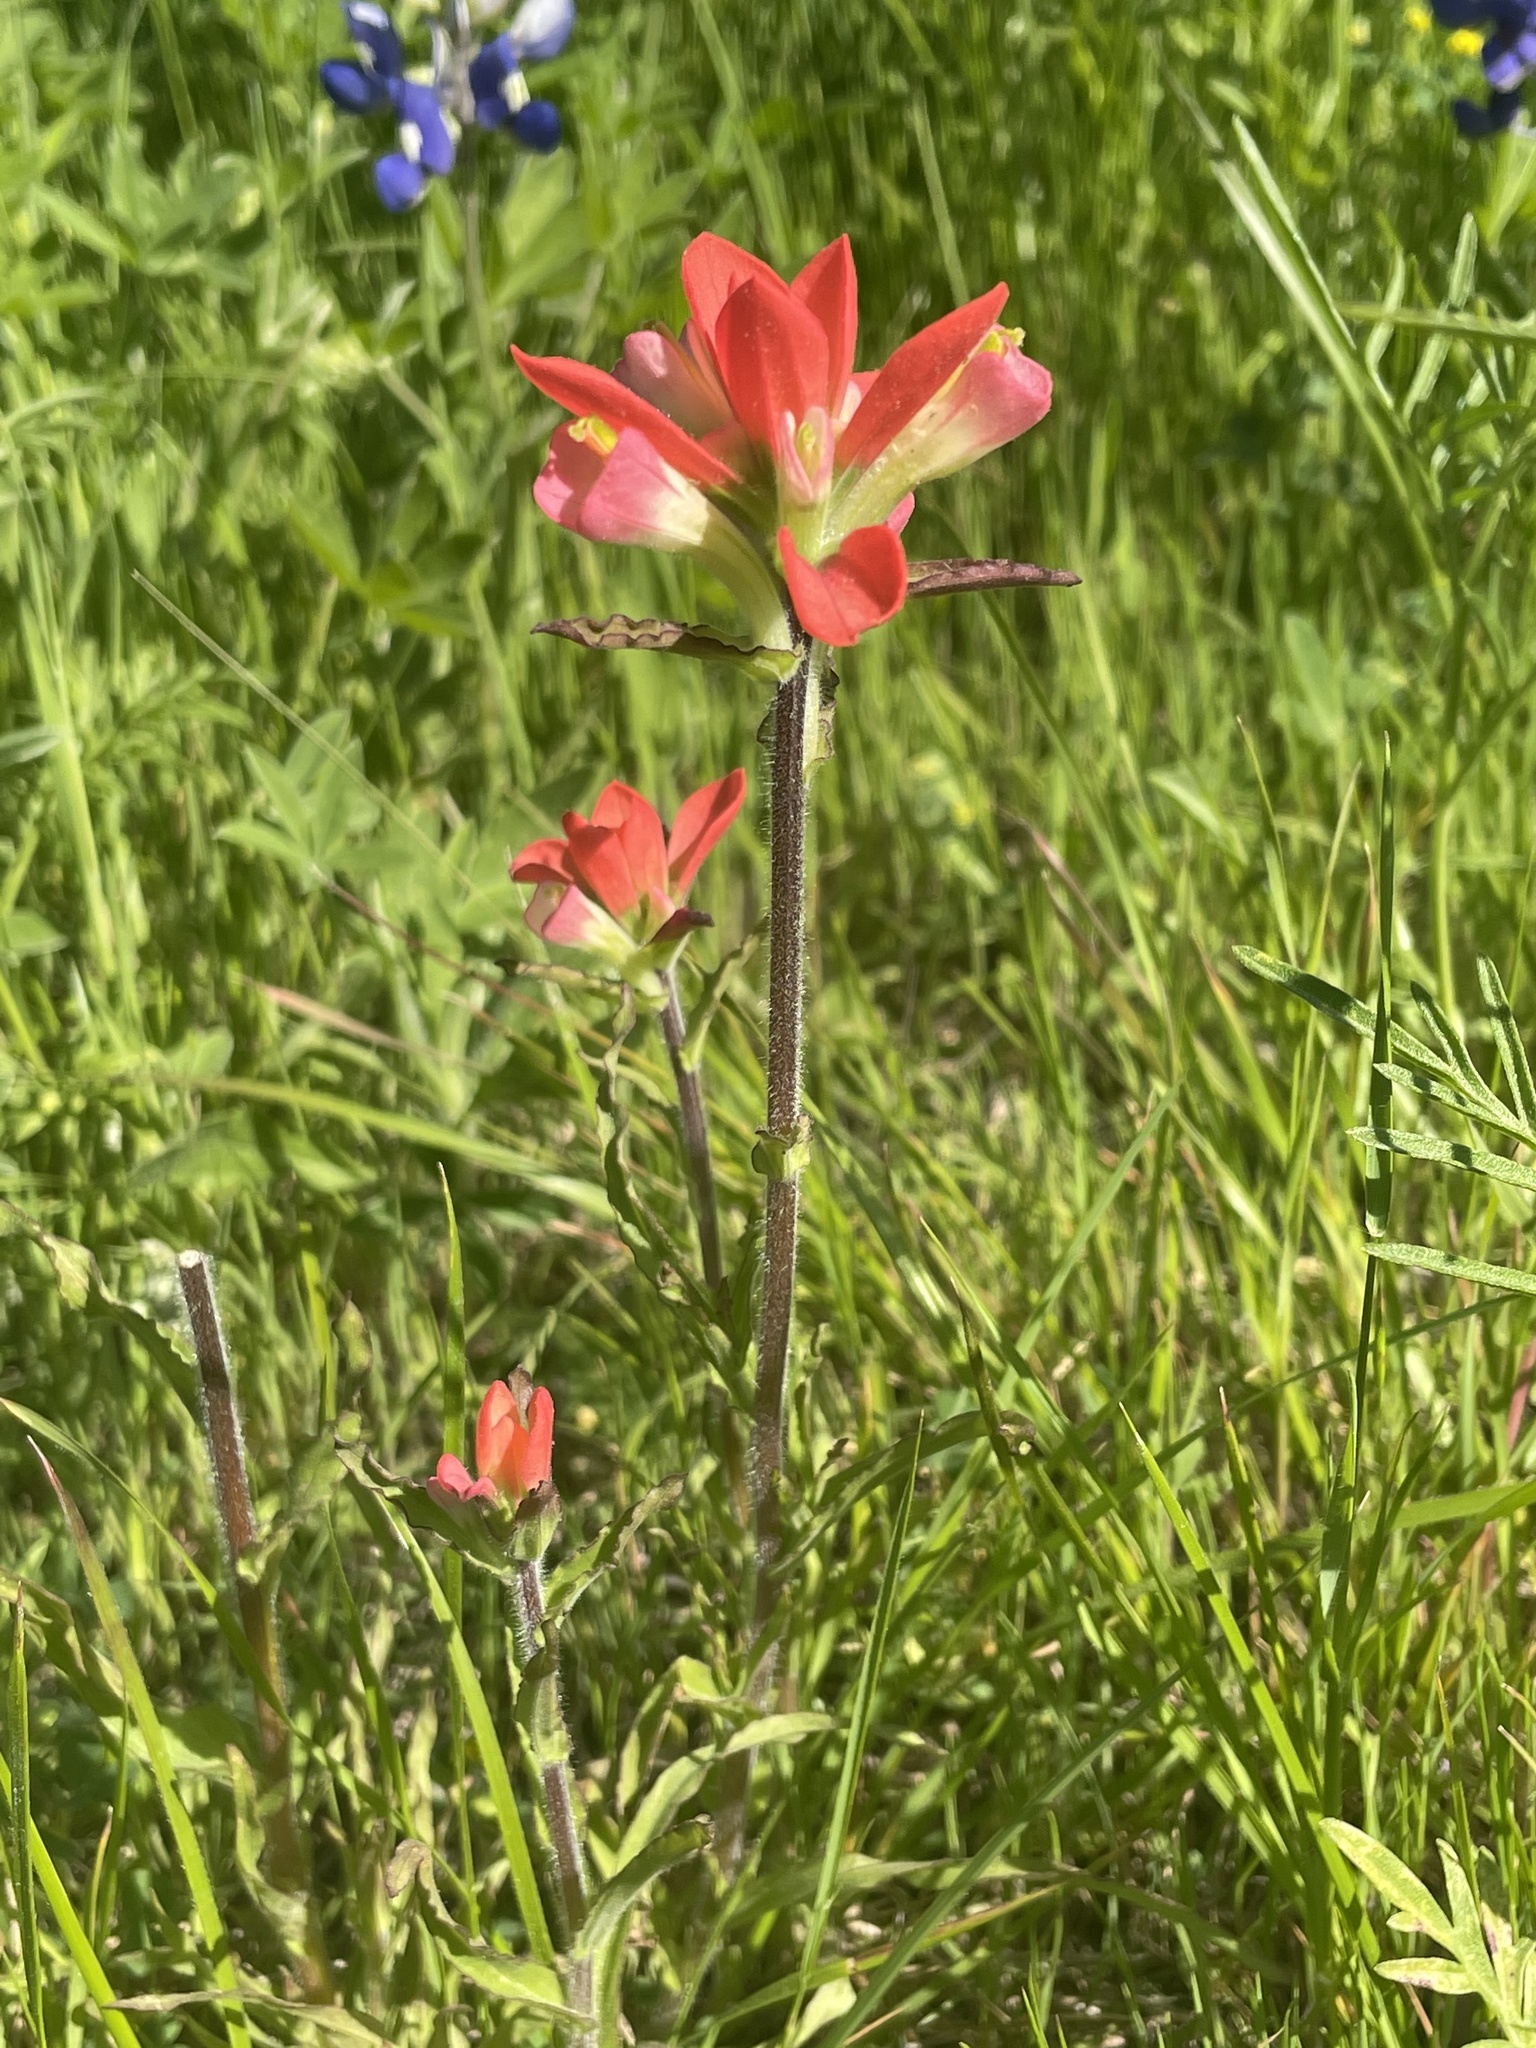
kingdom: Plantae
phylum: Tracheophyta
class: Magnoliopsida
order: Lamiales
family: Orobanchaceae
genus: Castilleja
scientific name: Castilleja indivisa
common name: Texas paintbrush
